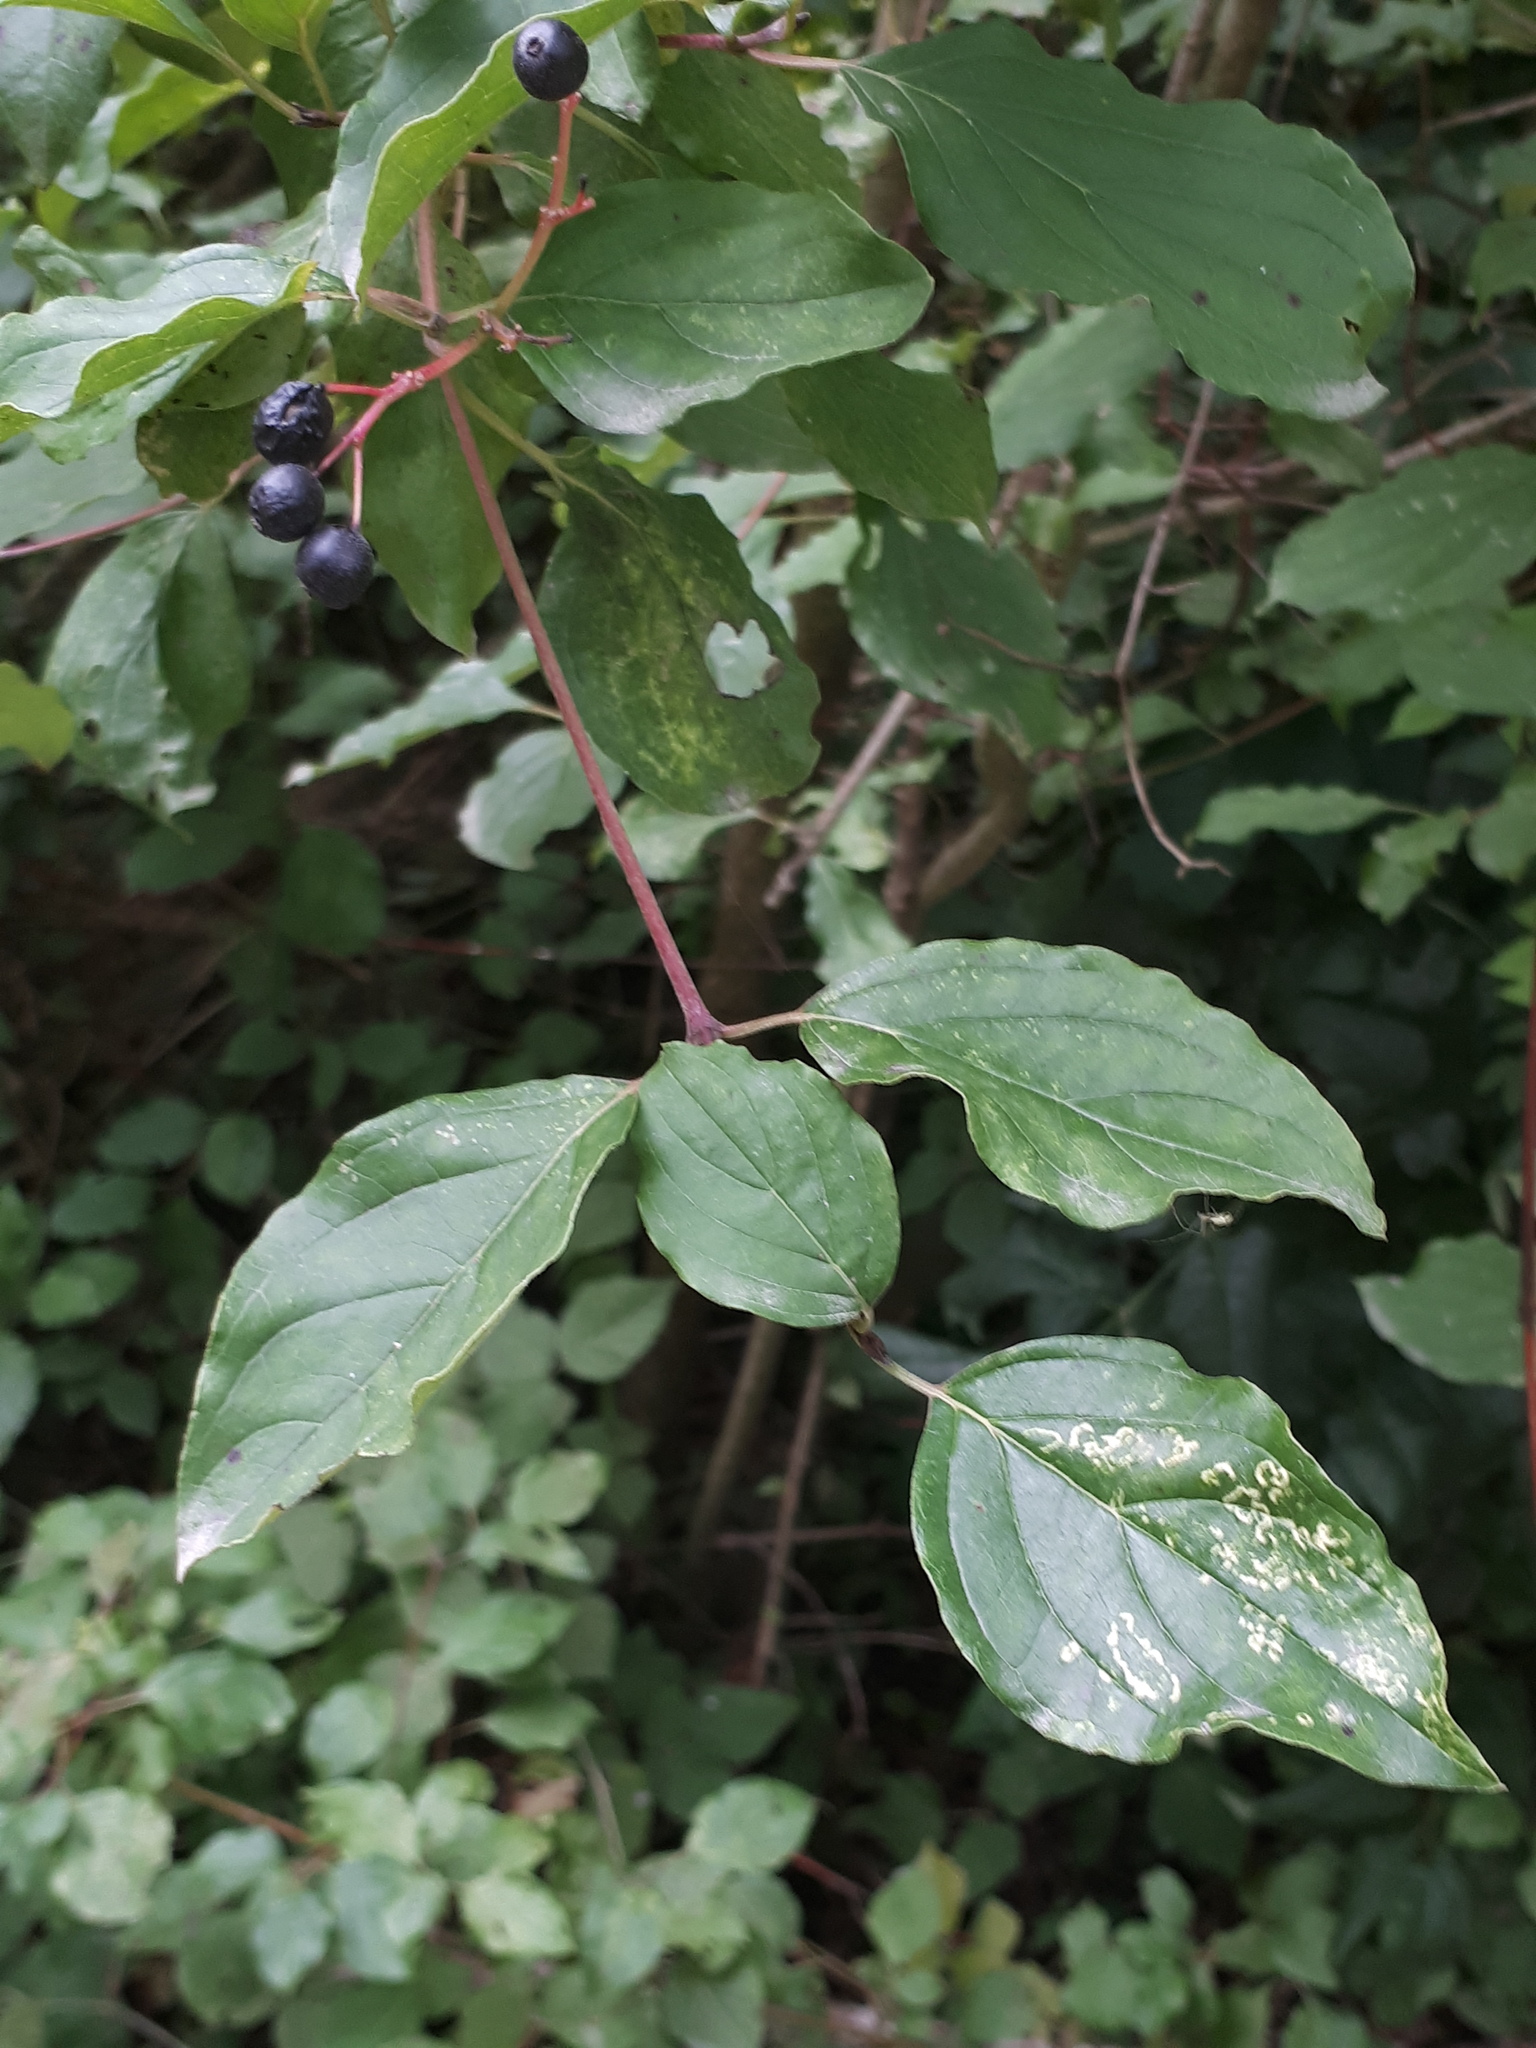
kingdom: Plantae
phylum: Tracheophyta
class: Magnoliopsida
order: Cornales
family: Cornaceae
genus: Cornus
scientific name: Cornus sanguinea
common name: Dogwood
